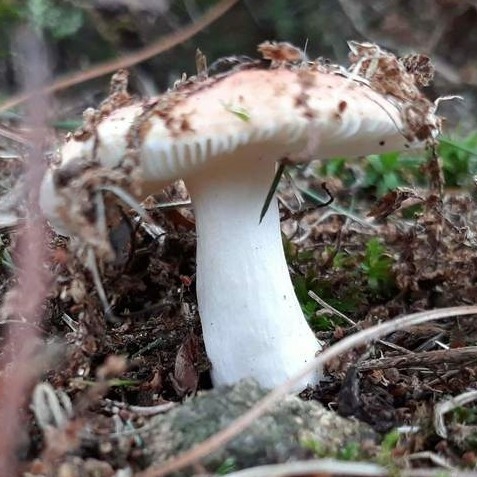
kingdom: Fungi
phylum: Basidiomycota
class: Agaricomycetes
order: Russulales
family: Russulaceae
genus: Russula
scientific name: Russula
